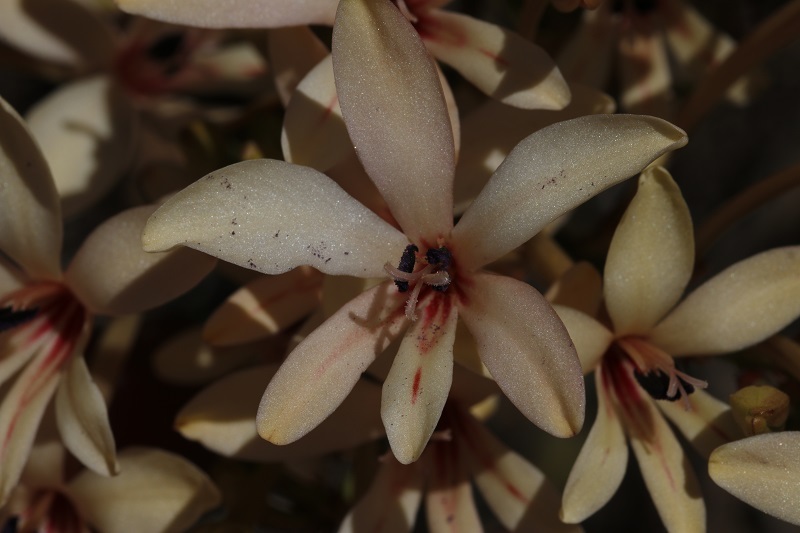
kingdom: Plantae
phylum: Tracheophyta
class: Liliopsida
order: Asparagales
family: Iridaceae
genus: Tritonia
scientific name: Tritonia undulata
